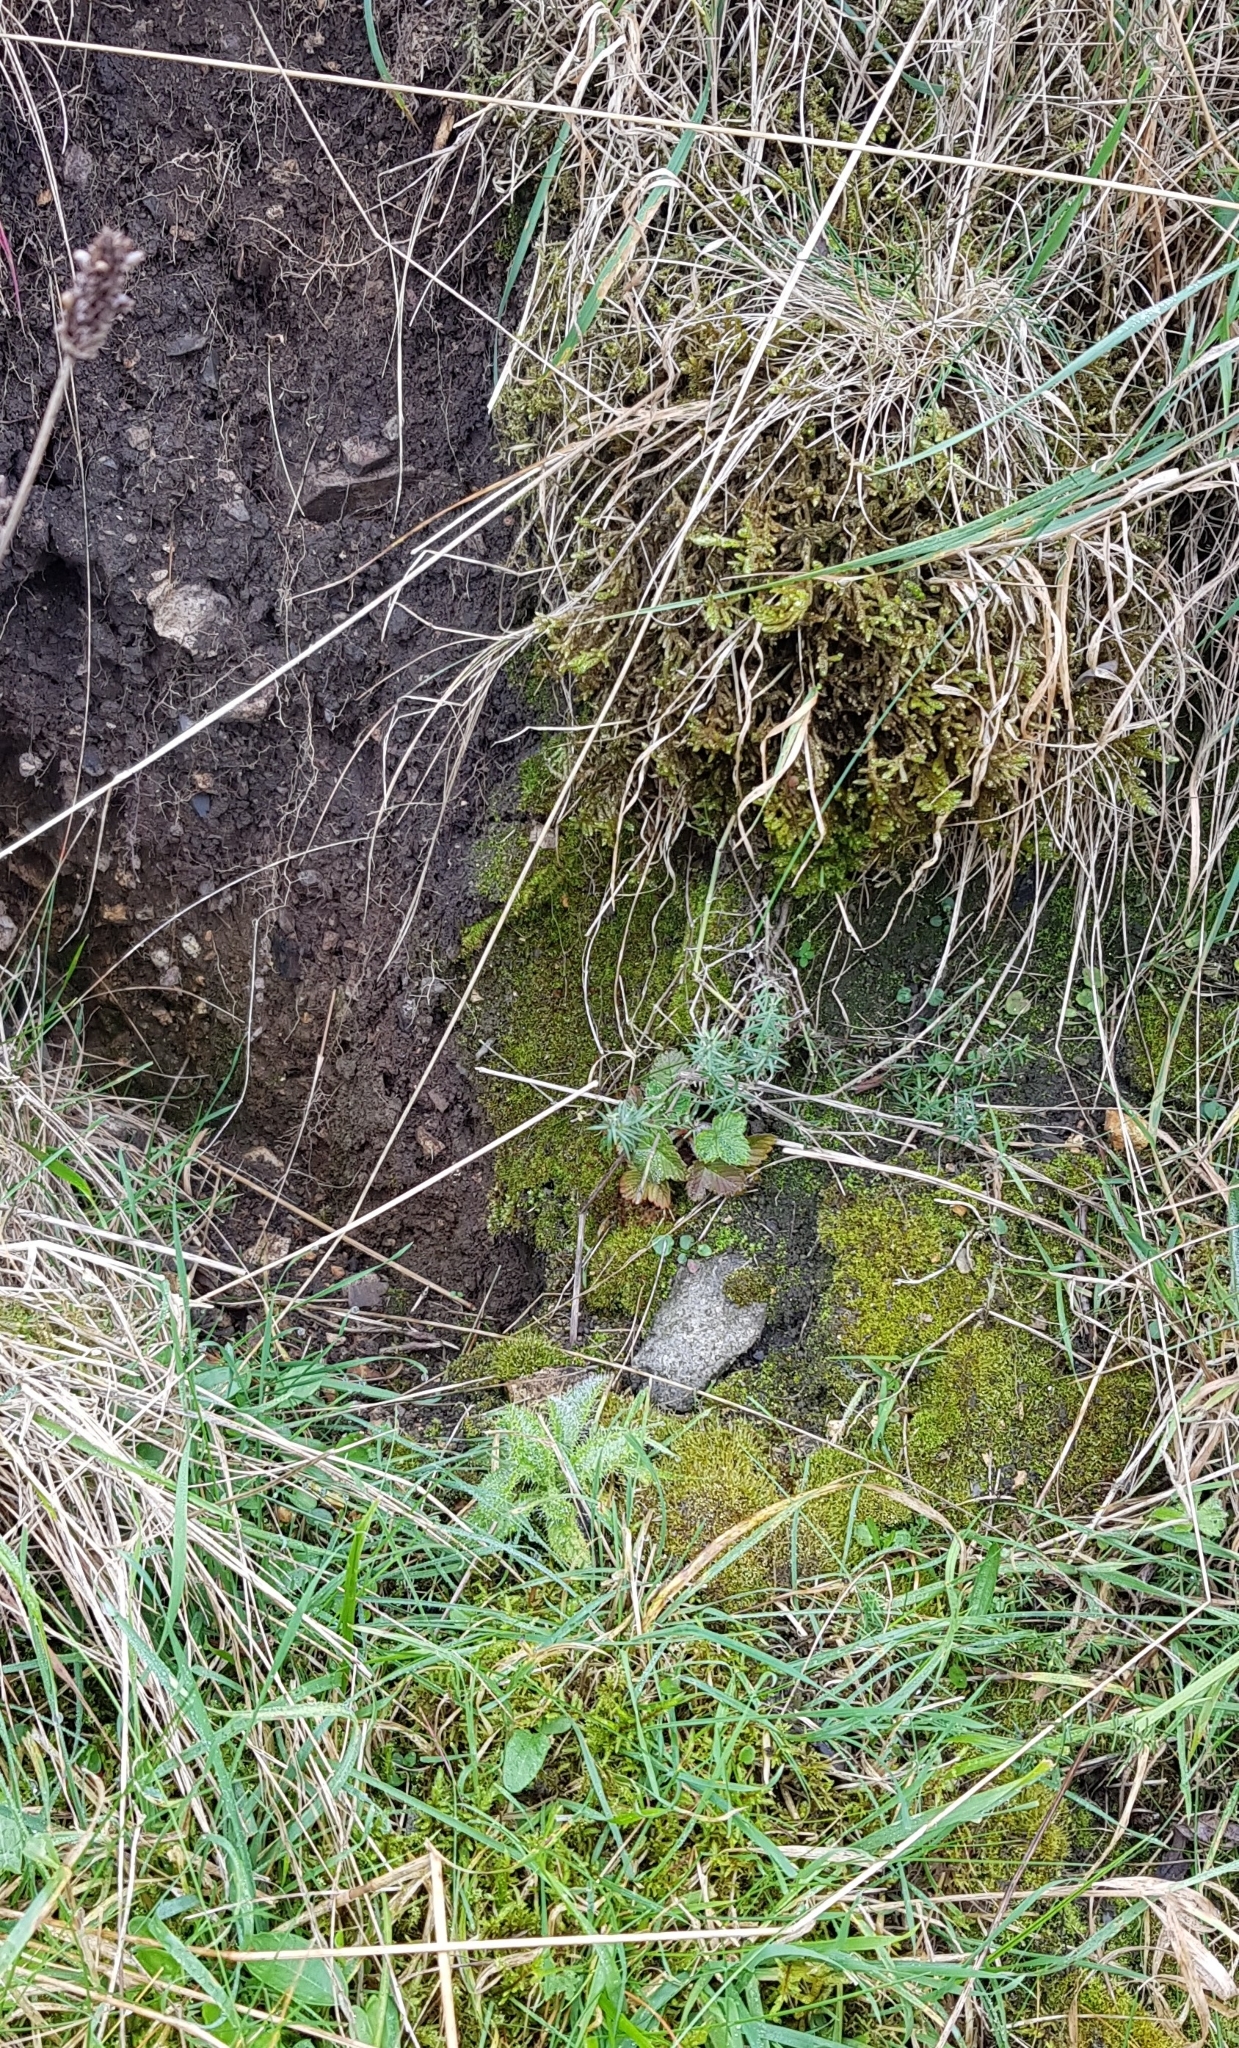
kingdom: Plantae
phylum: Bryophyta
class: Bryopsida
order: Pottiales
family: Pottiaceae
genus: Weissia
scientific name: Weissia controversa
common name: Green-tufted stubble moss
